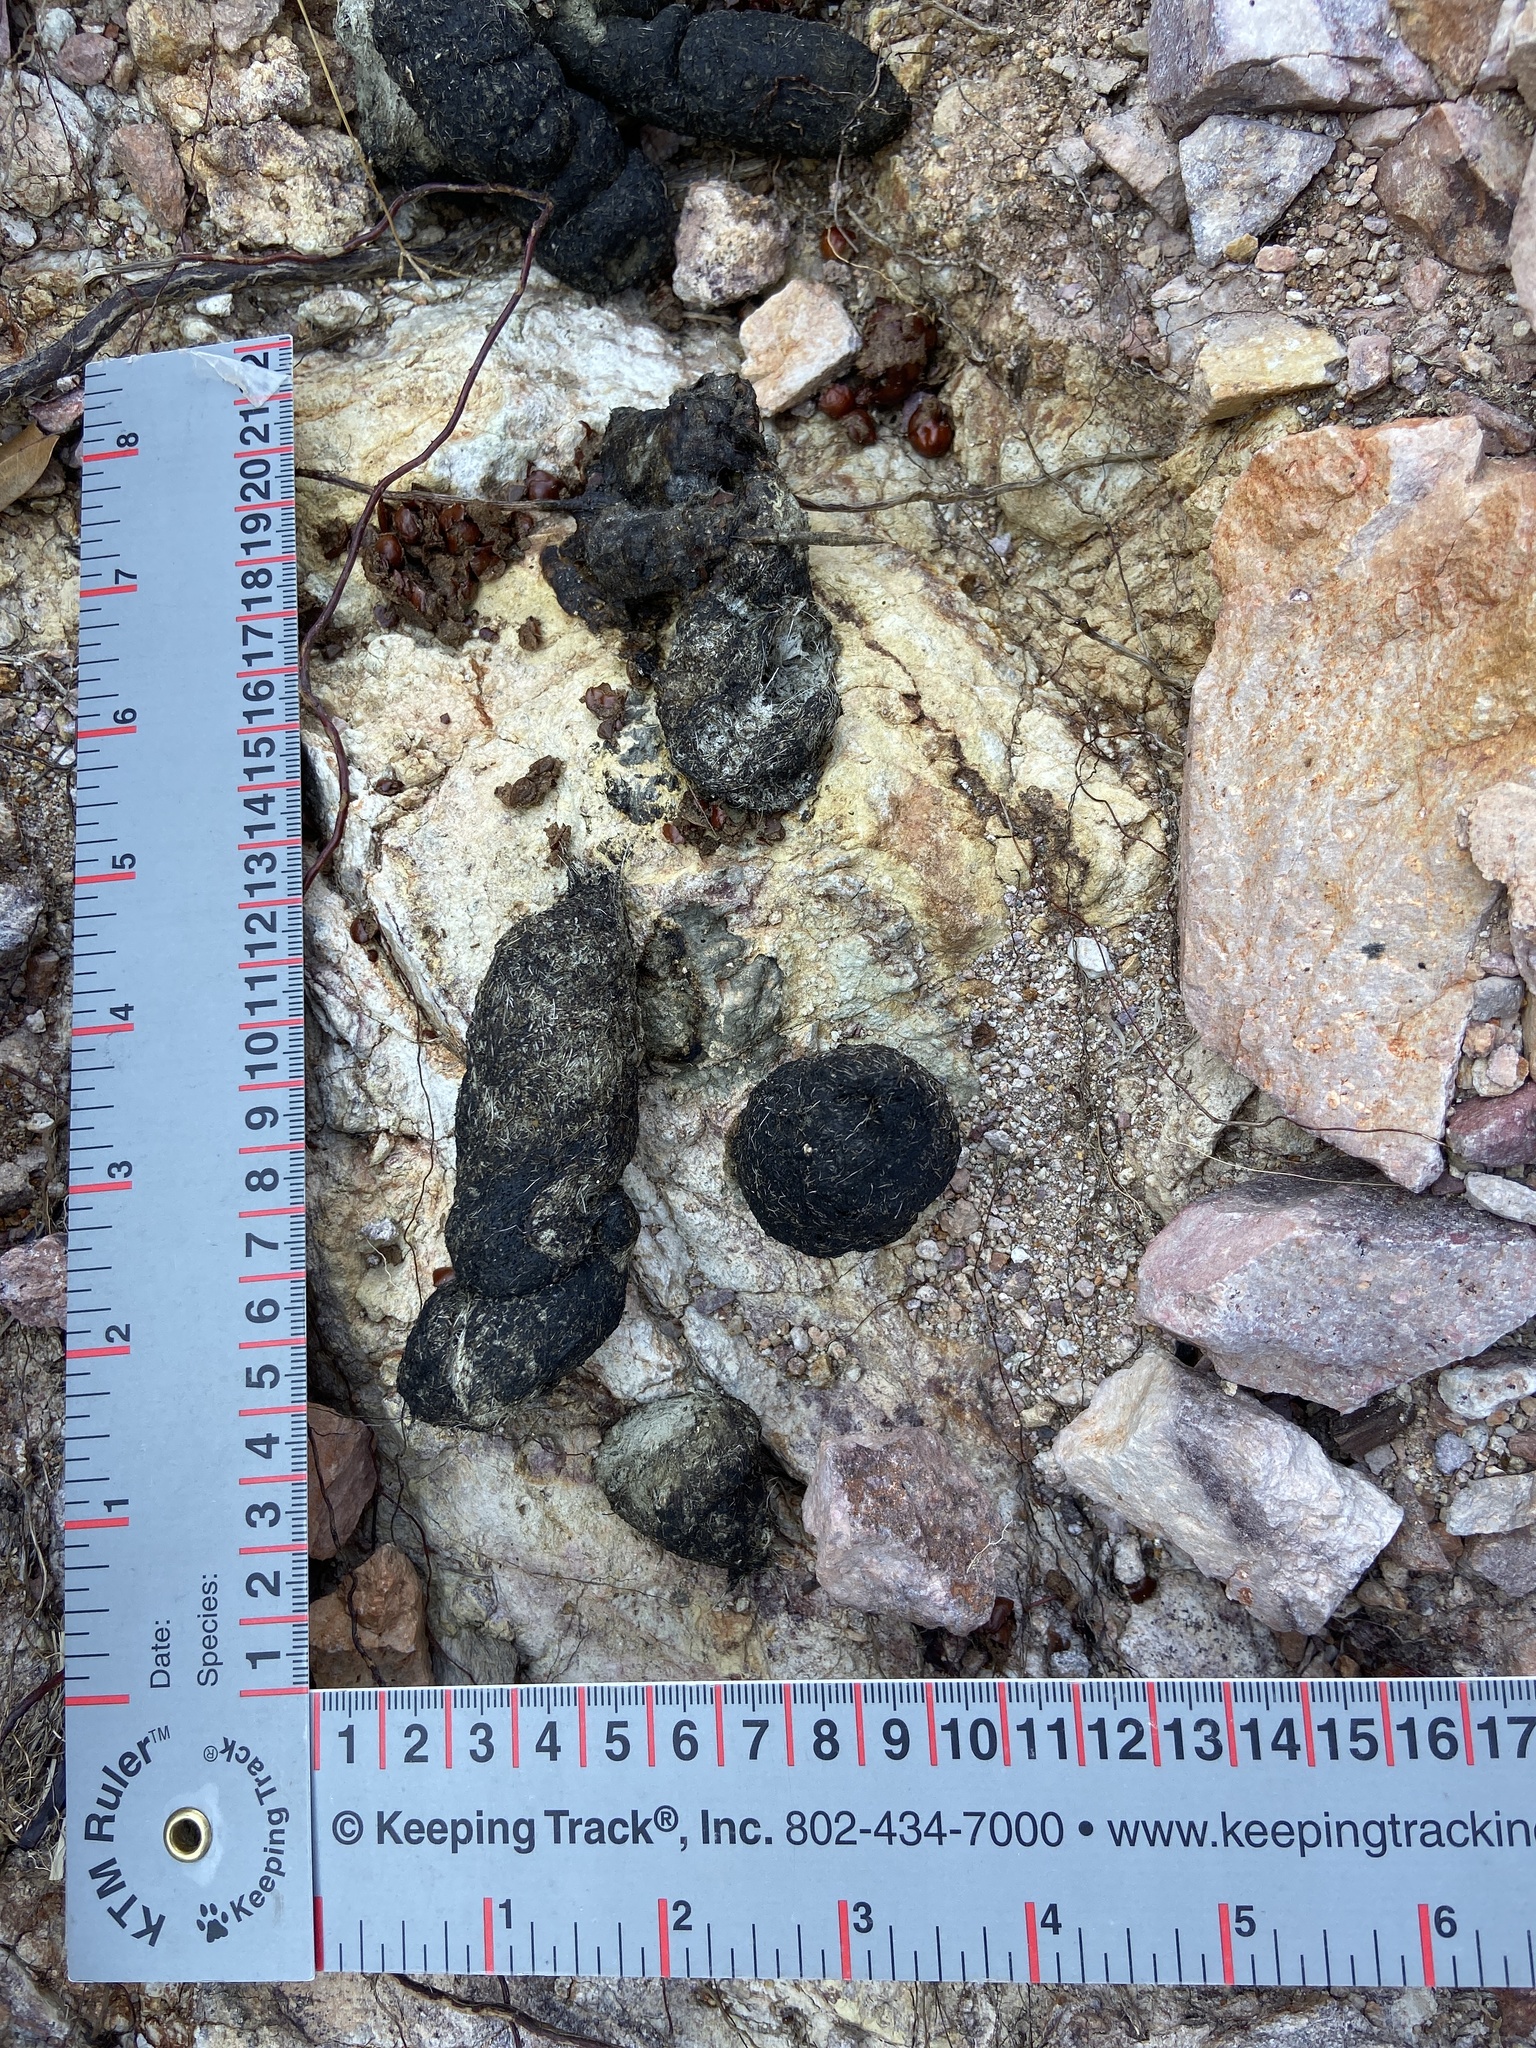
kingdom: Animalia
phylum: Chordata
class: Mammalia
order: Carnivora
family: Felidae
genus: Puma
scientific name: Puma concolor
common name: Puma
